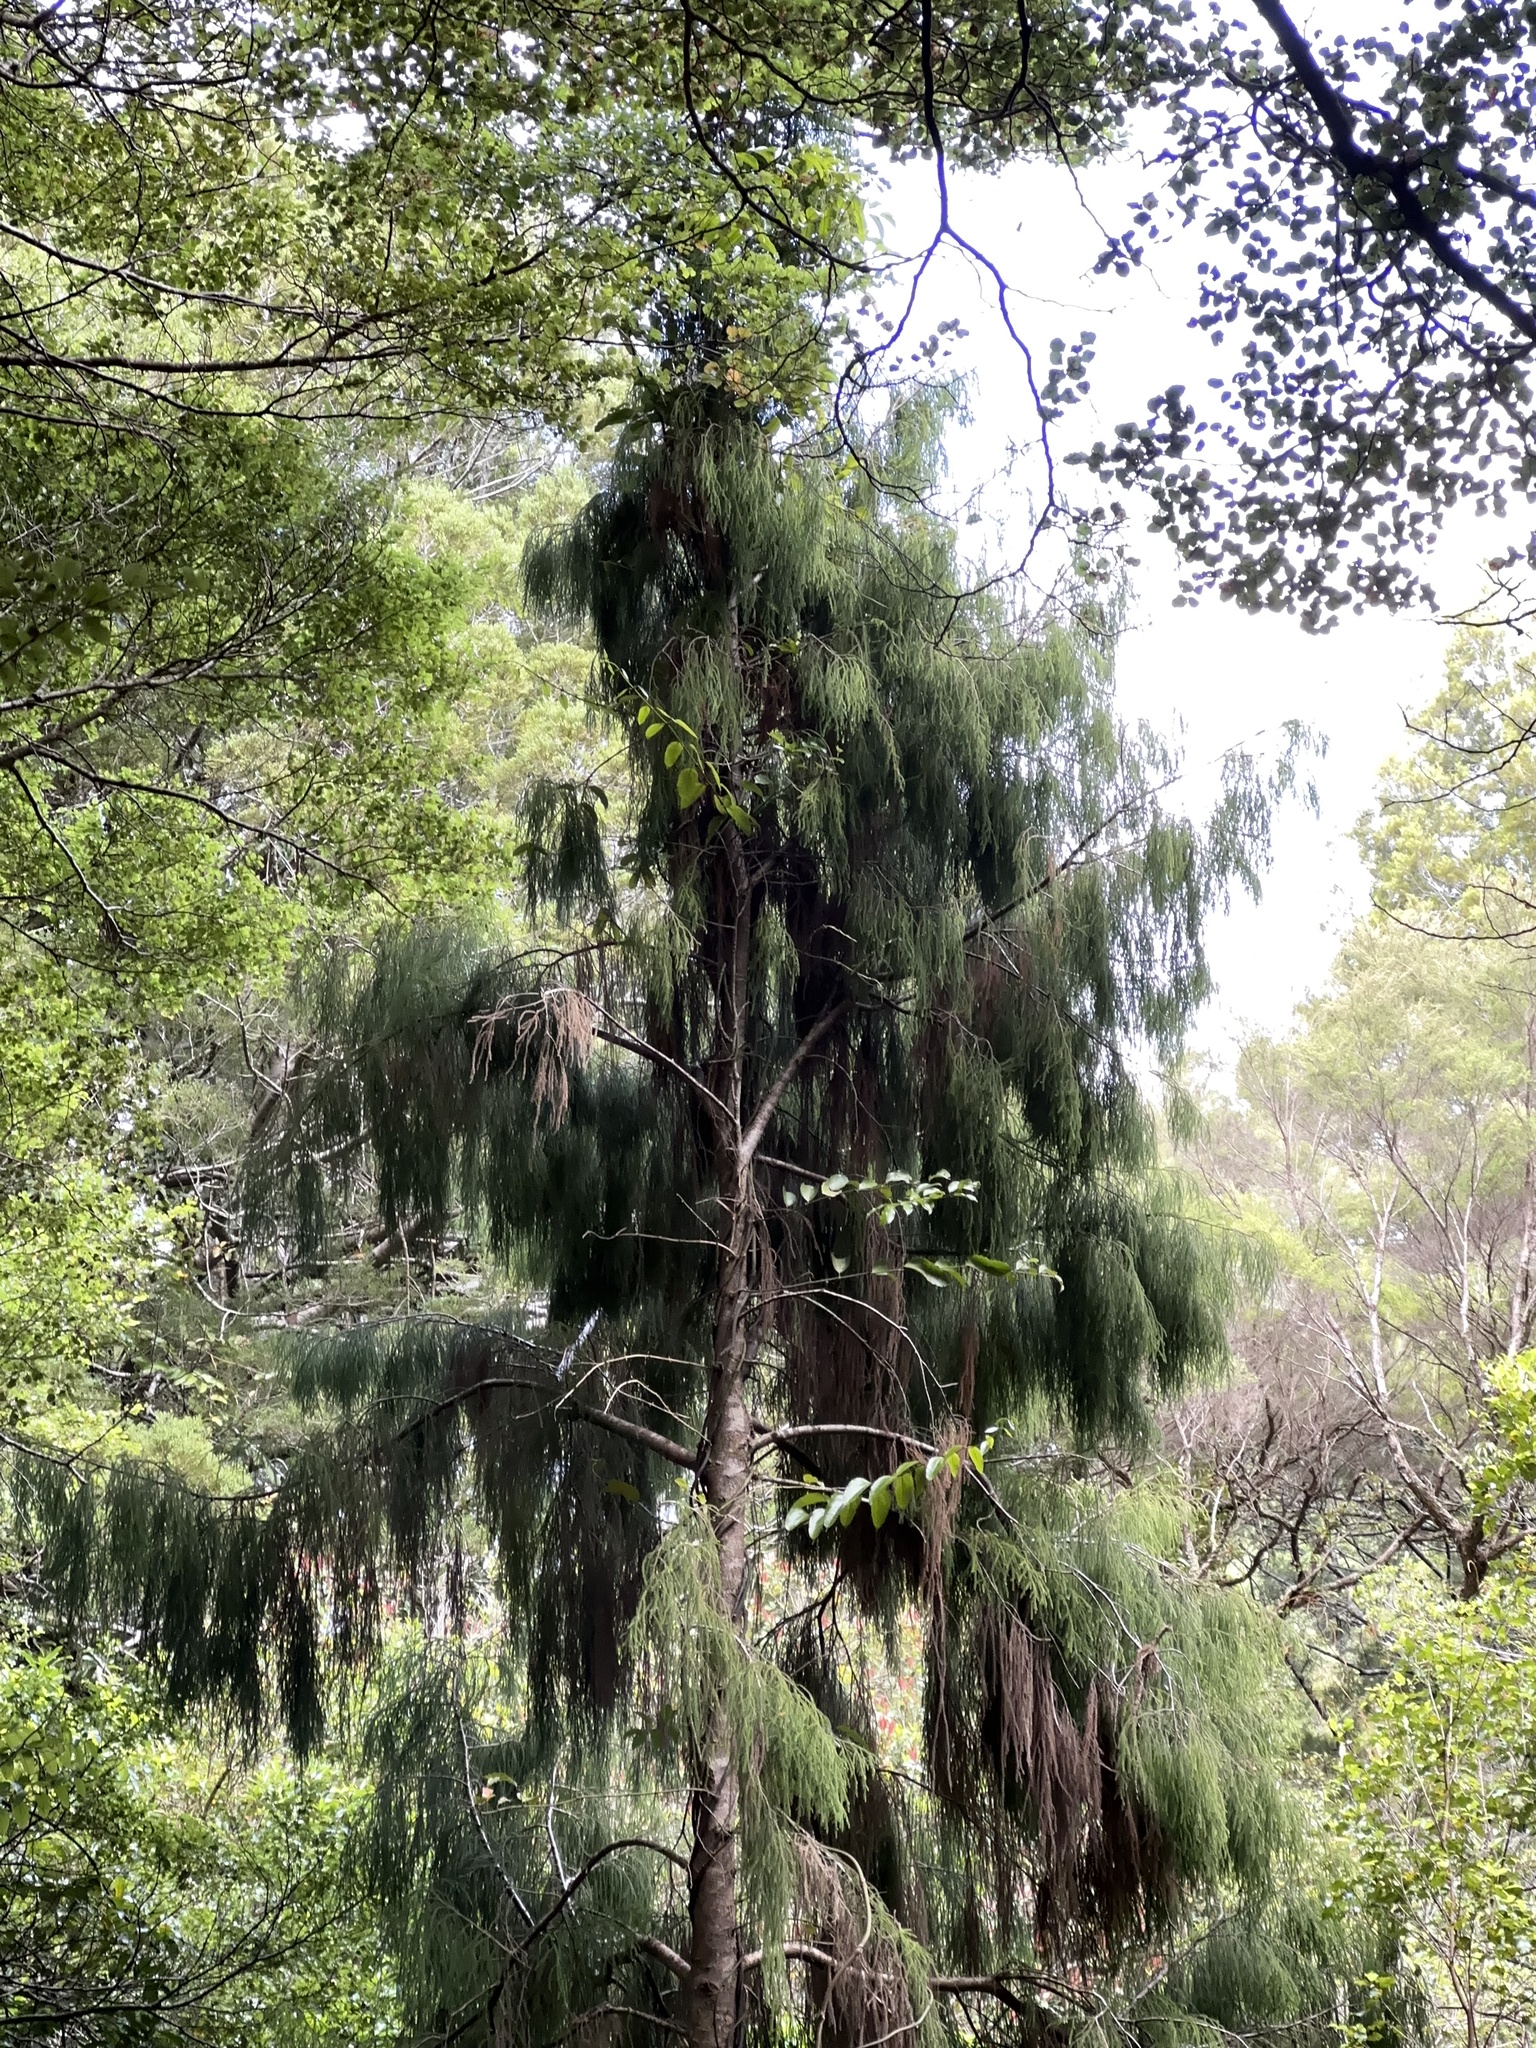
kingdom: Plantae
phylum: Tracheophyta
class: Pinopsida
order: Pinales
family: Podocarpaceae
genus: Dacrydium
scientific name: Dacrydium cupressinum
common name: Red pine
